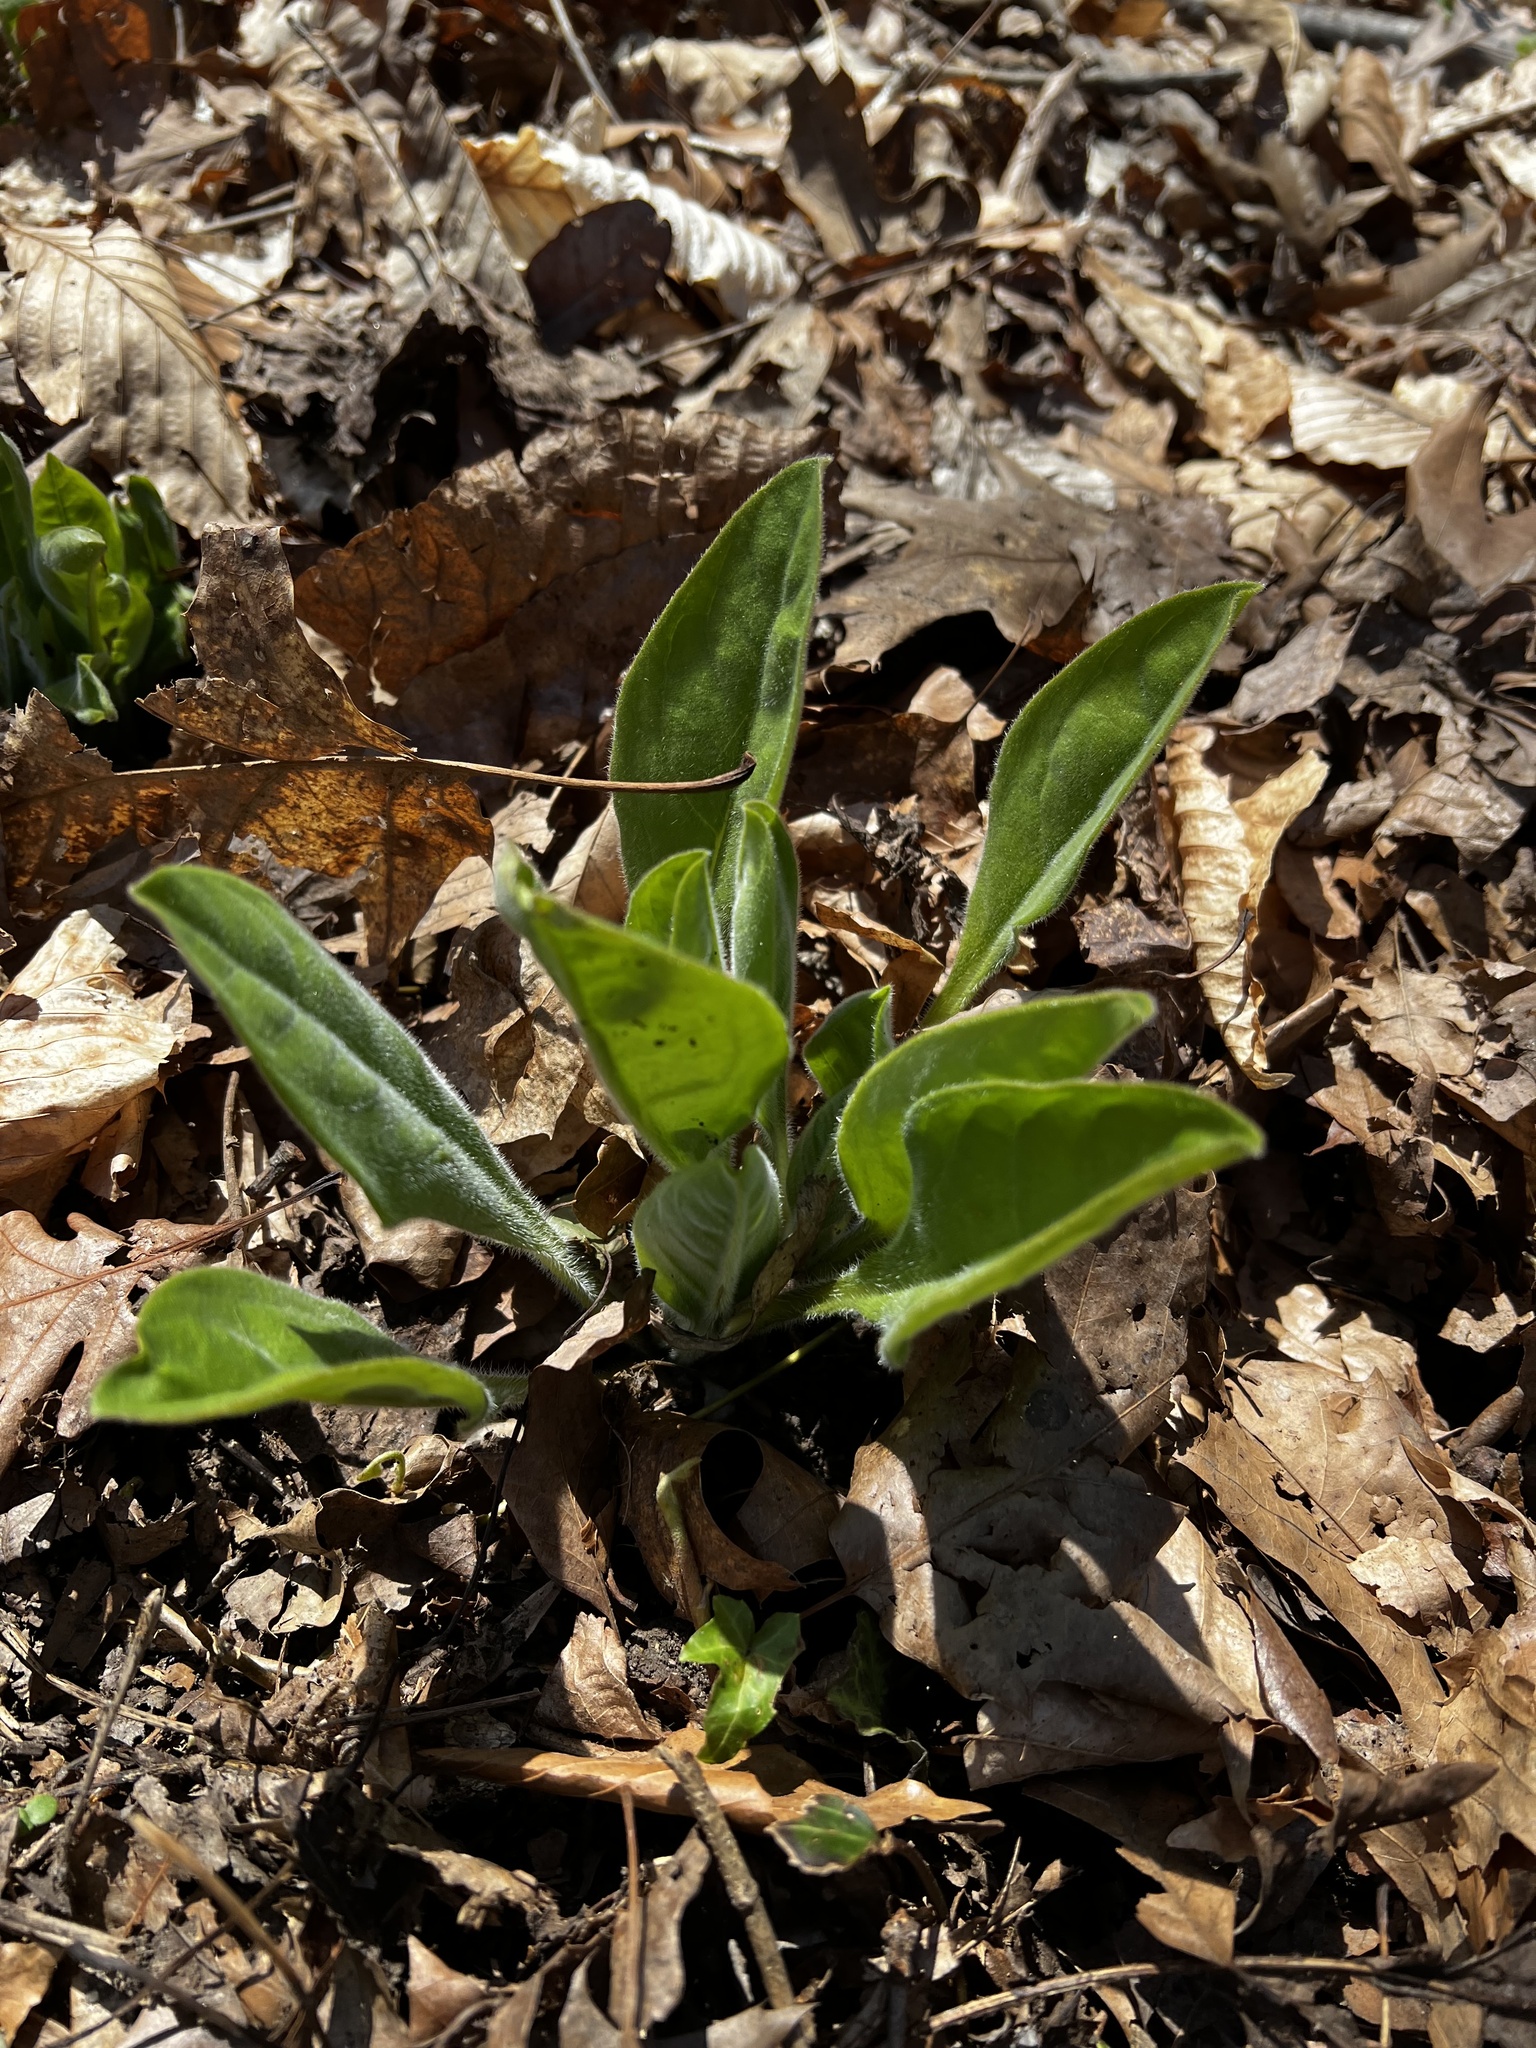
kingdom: Plantae
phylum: Tracheophyta
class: Magnoliopsida
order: Boraginales
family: Boraginaceae
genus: Andersonglossum
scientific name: Andersonglossum virginianum
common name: Wild comfrey
